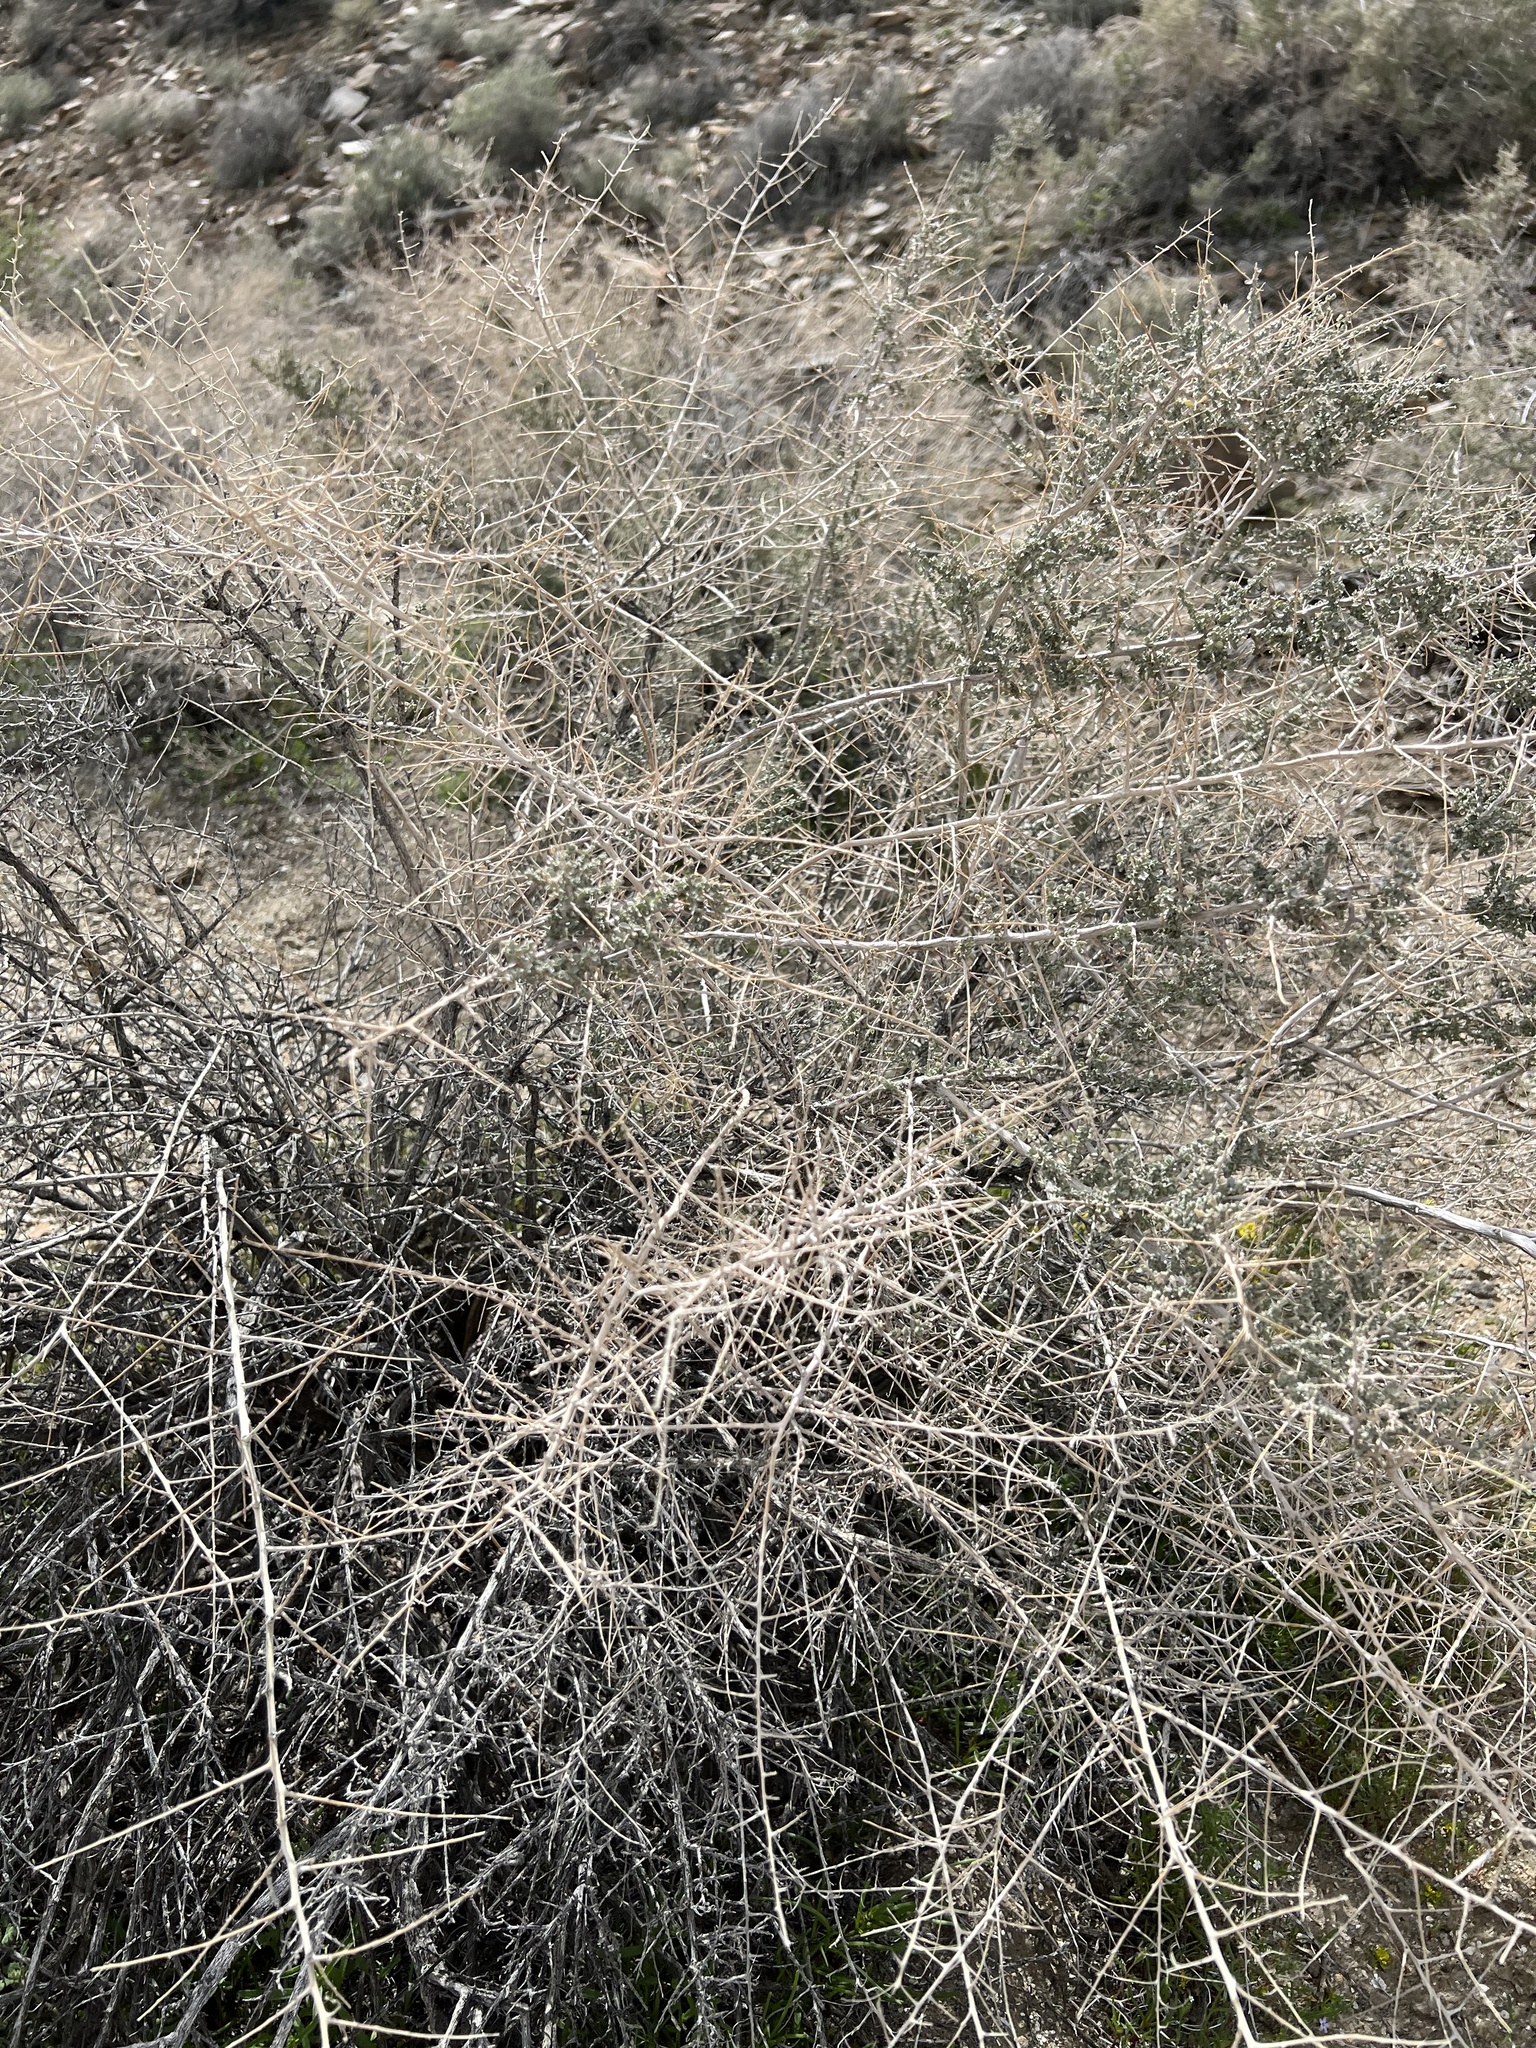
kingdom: Plantae
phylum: Tracheophyta
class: Magnoliopsida
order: Caryophyllales
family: Amaranthaceae
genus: Atriplex
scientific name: Atriplex polycarpa
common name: Desert saltbush
